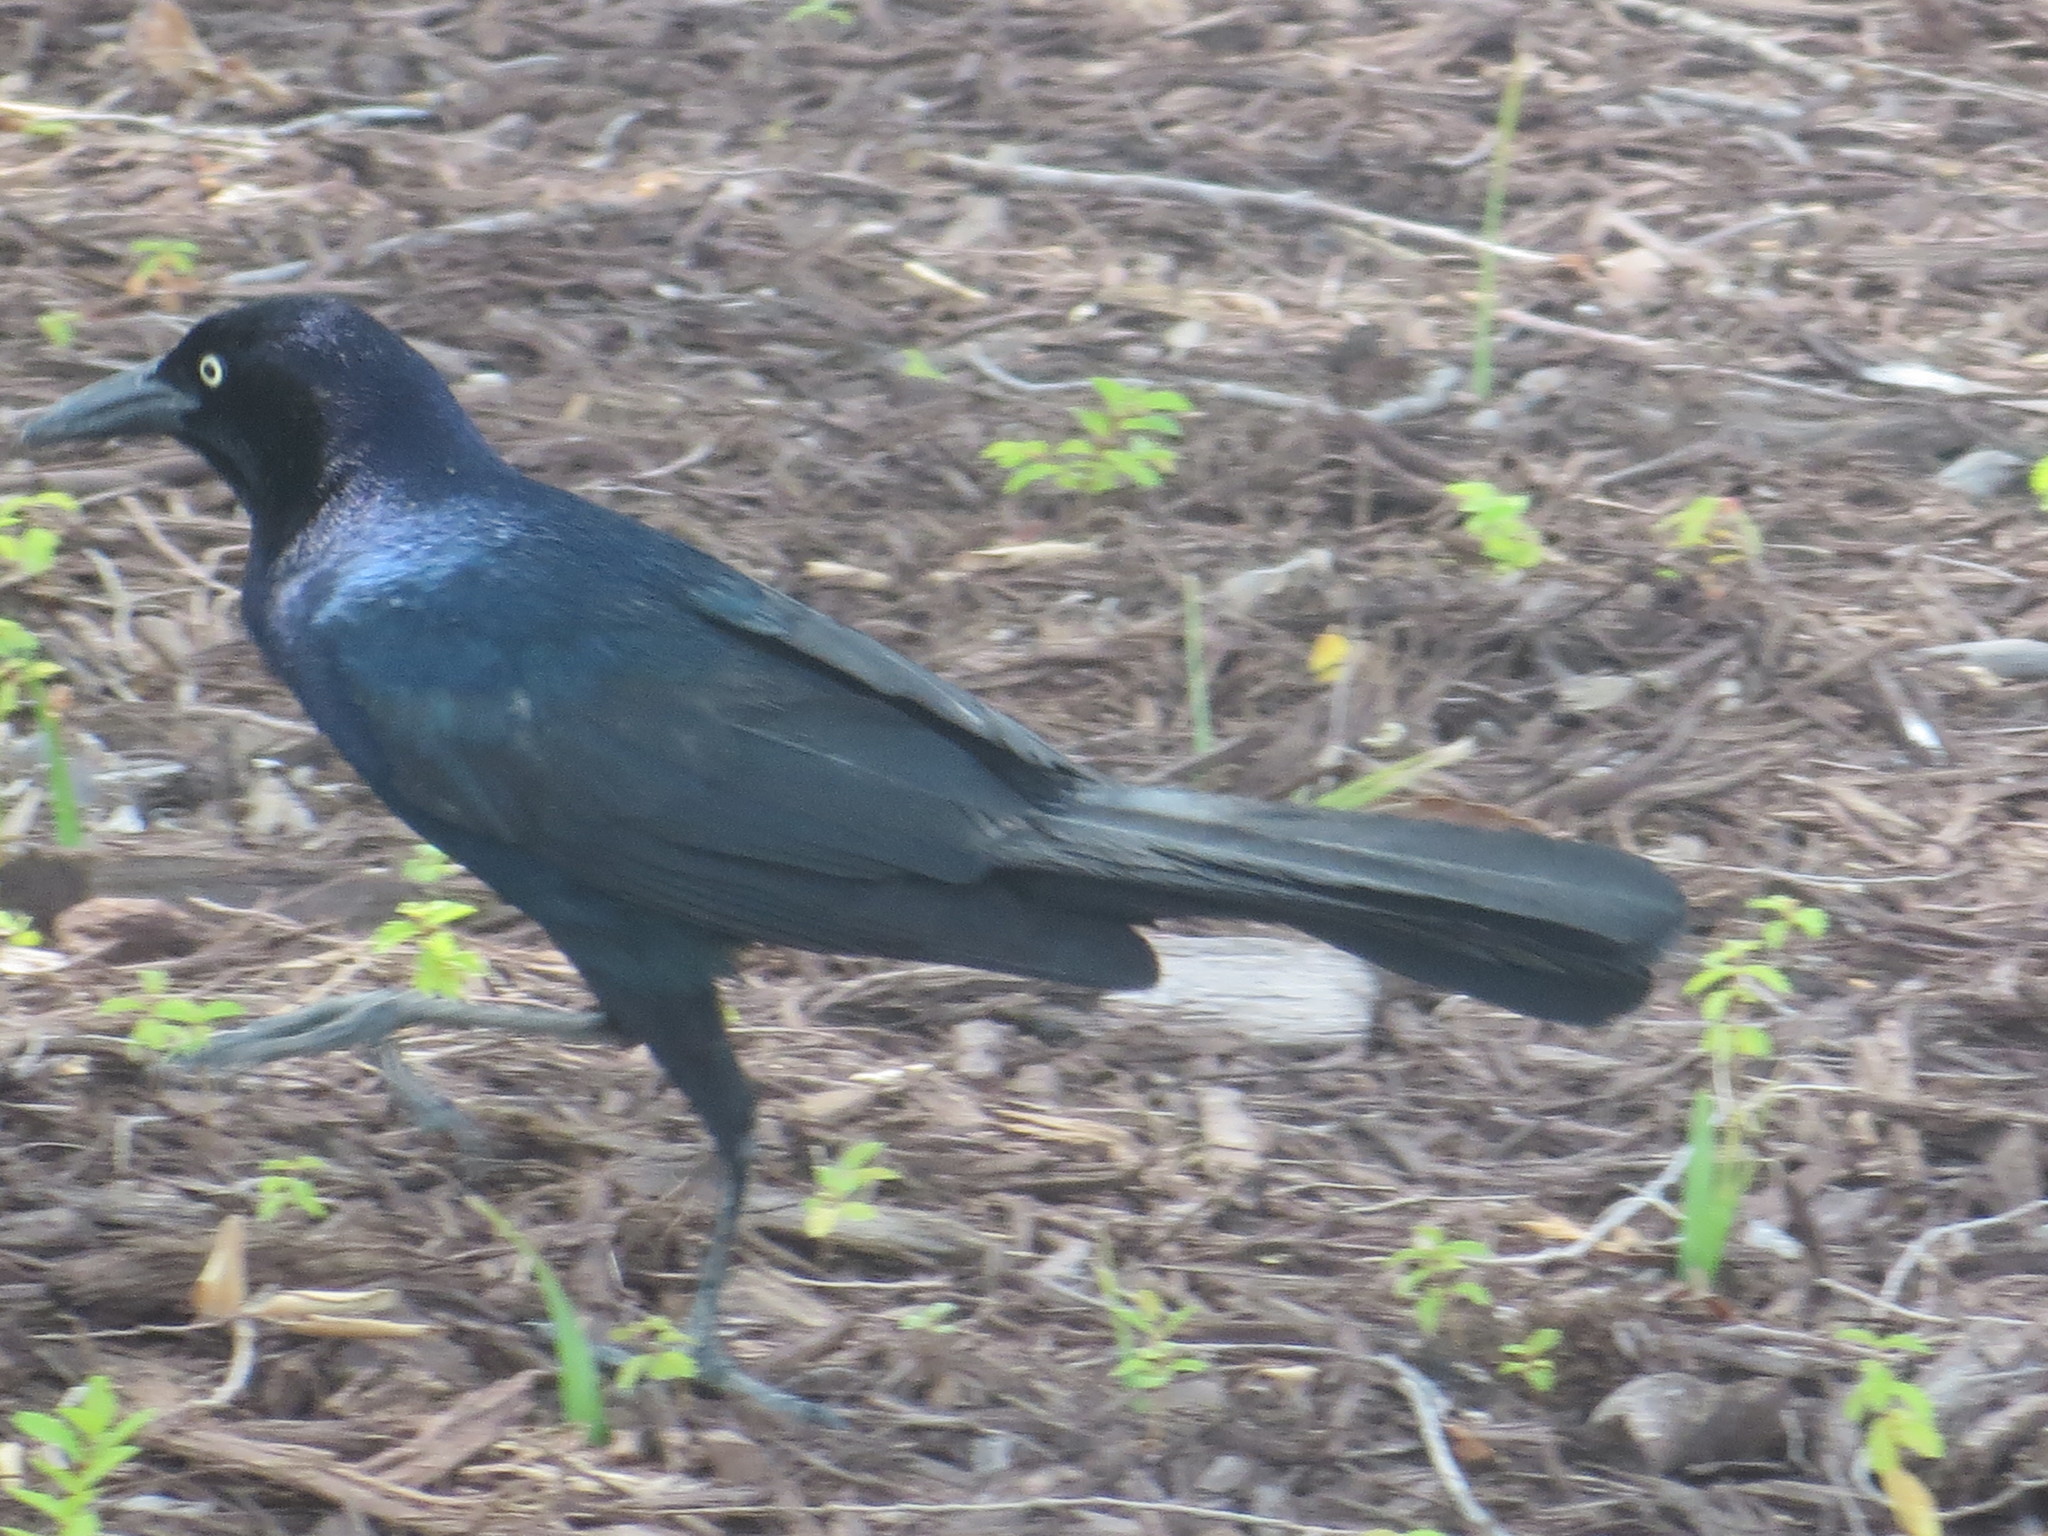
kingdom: Animalia
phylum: Chordata
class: Aves
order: Passeriformes
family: Icteridae
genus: Quiscalus
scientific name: Quiscalus major
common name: Boat-tailed grackle
